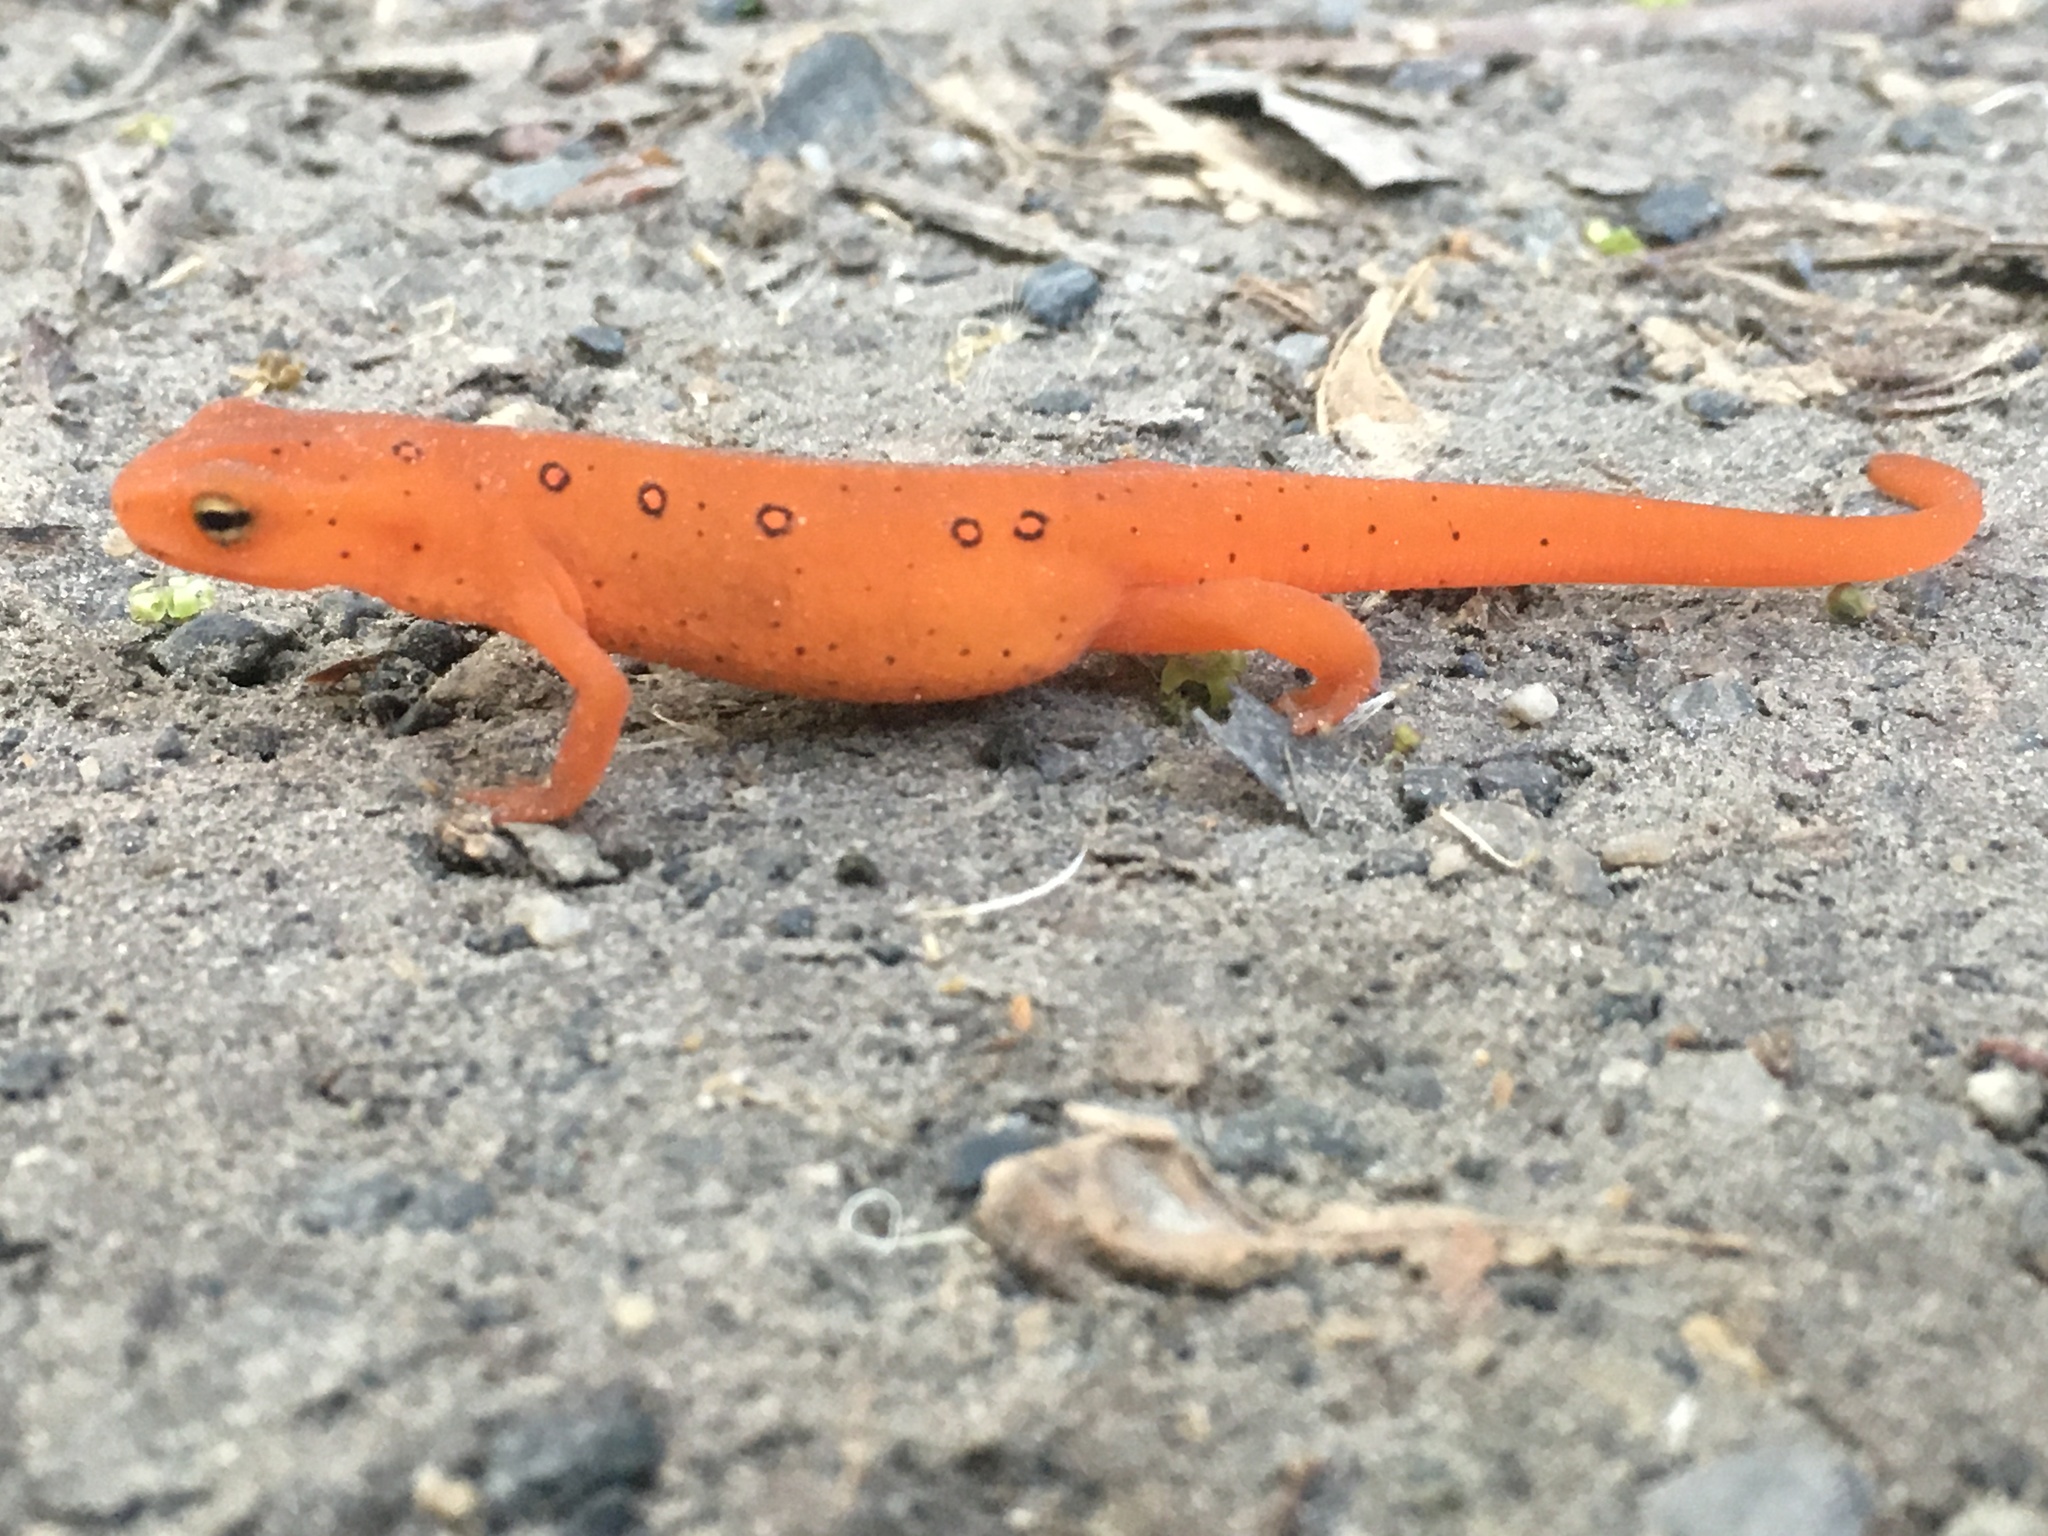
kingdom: Animalia
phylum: Chordata
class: Amphibia
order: Caudata
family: Salamandridae
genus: Notophthalmus
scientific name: Notophthalmus viridescens
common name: Eastern newt
